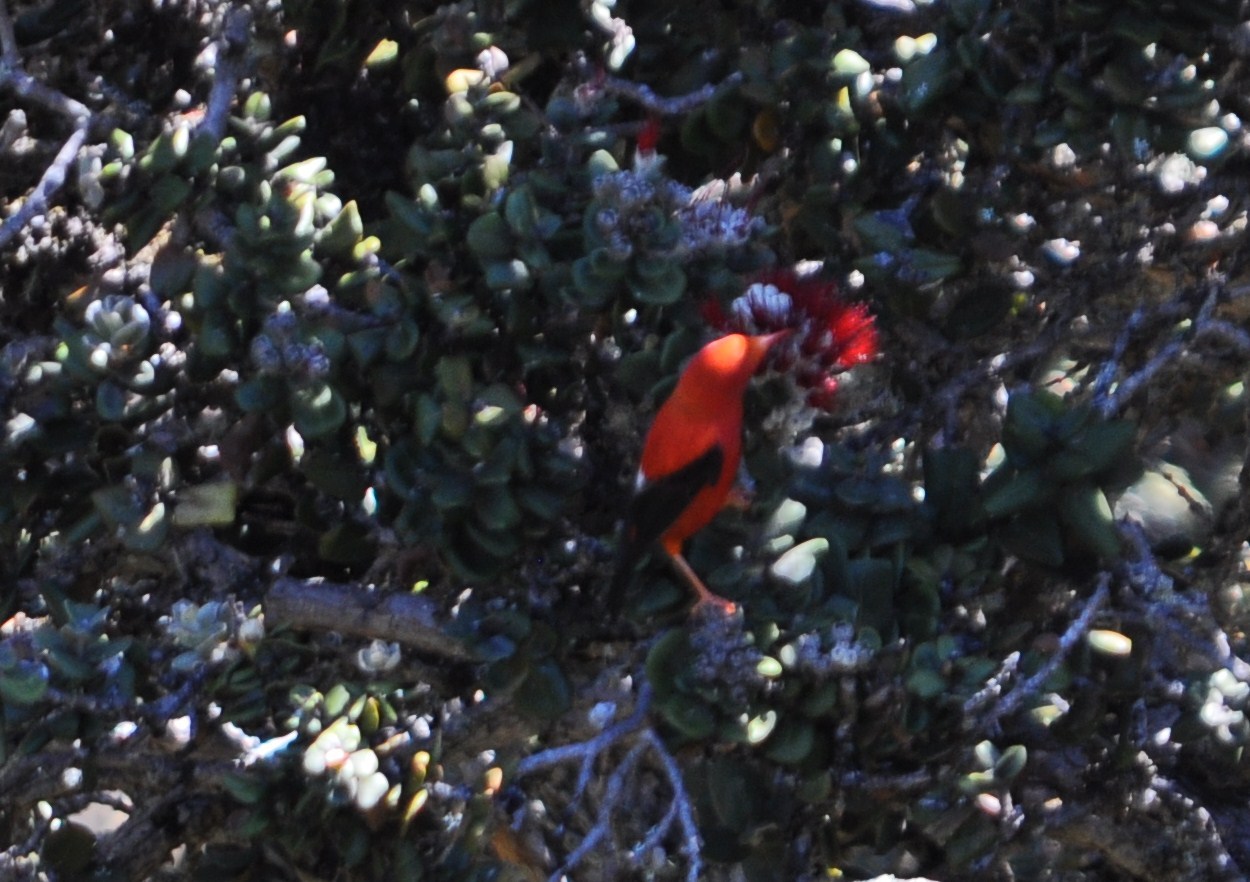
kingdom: Animalia
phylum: Chordata
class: Aves
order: Passeriformes
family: Fringillidae
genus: Vestiaria
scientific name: Vestiaria coccinea
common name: Iiwi
